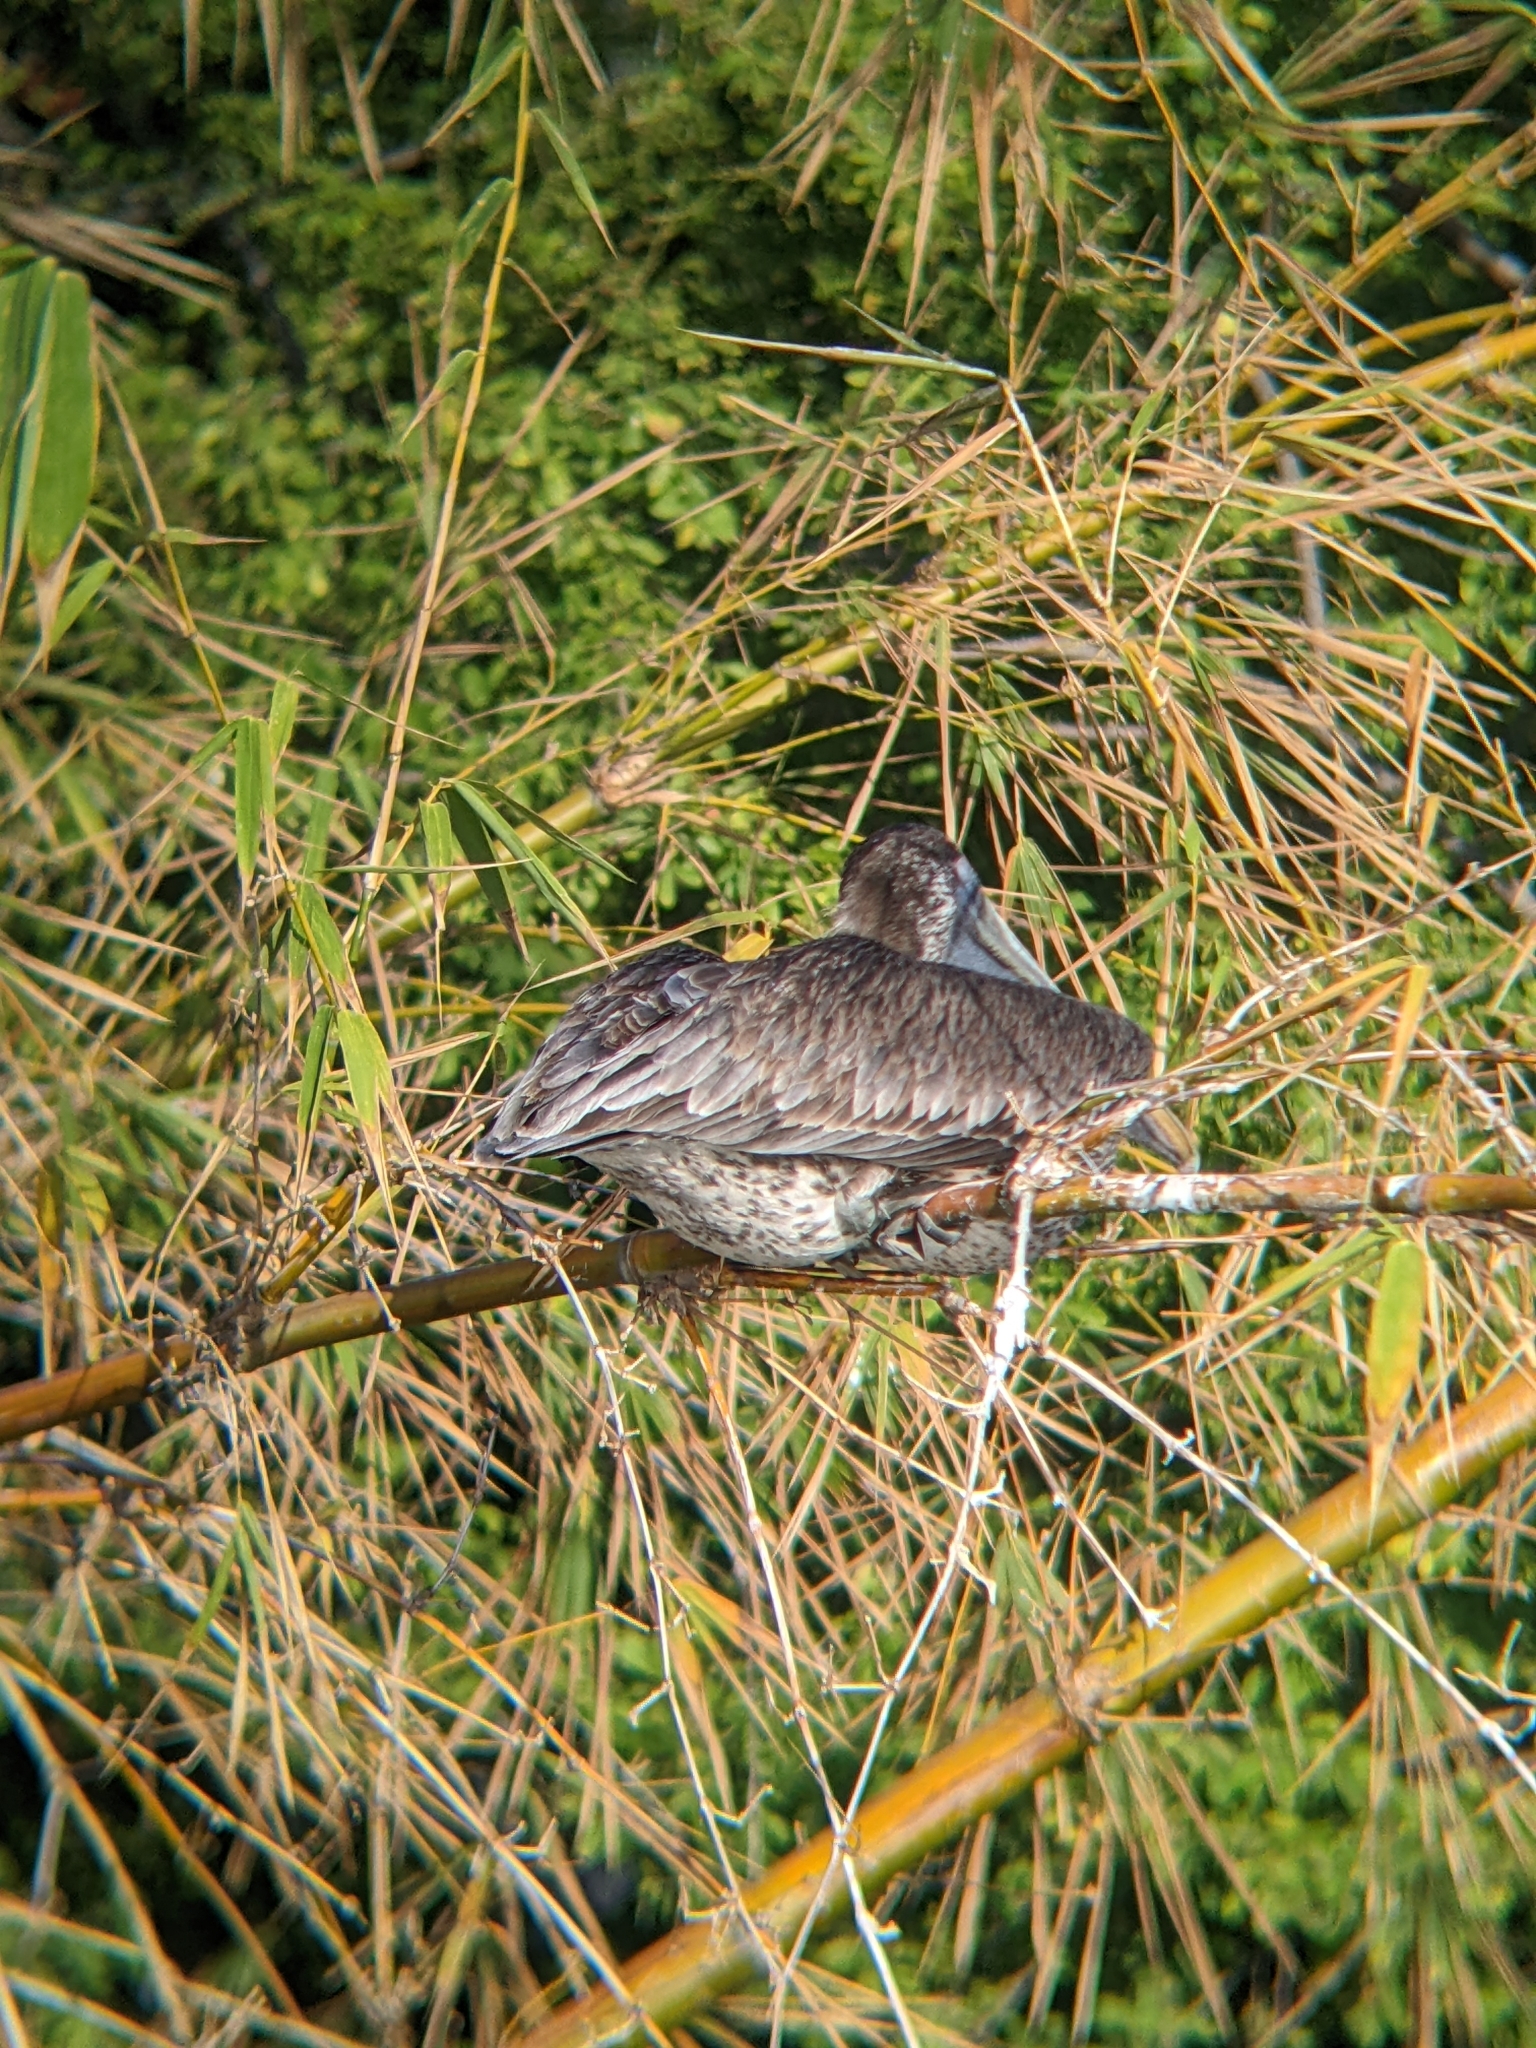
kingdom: Animalia
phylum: Chordata
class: Aves
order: Pelecaniformes
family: Pelecanidae
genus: Pelecanus
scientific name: Pelecanus occidentalis
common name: Brown pelican
